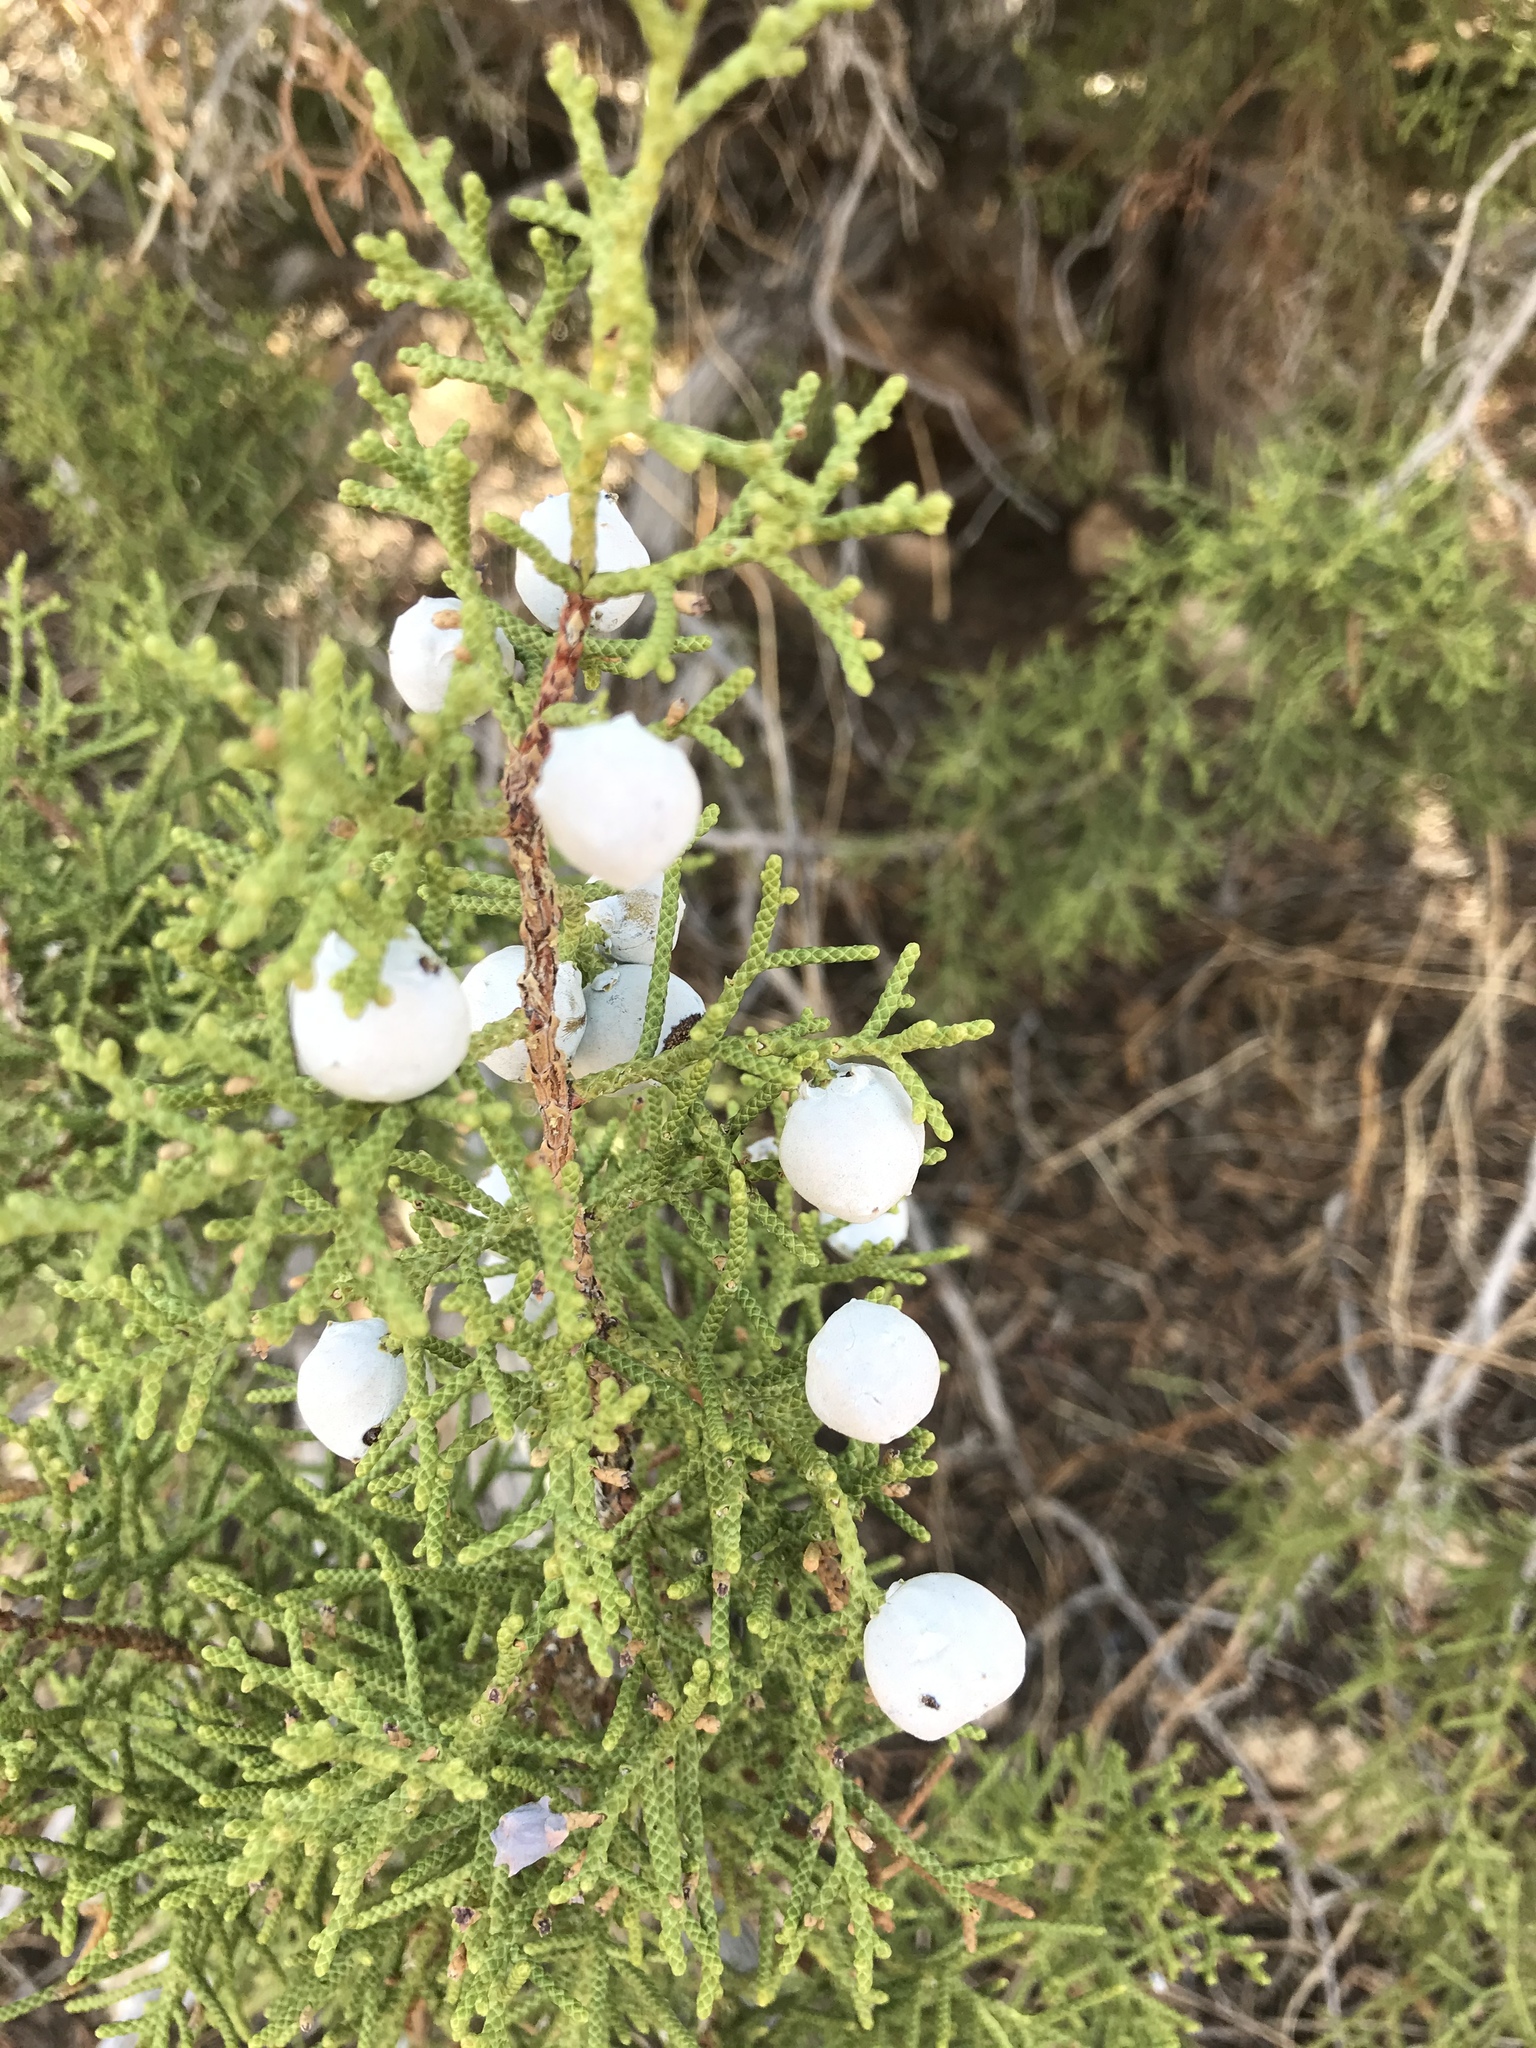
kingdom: Plantae
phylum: Tracheophyta
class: Pinopsida
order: Pinales
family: Cupressaceae
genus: Juniperus
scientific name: Juniperus californica
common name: California juniper
